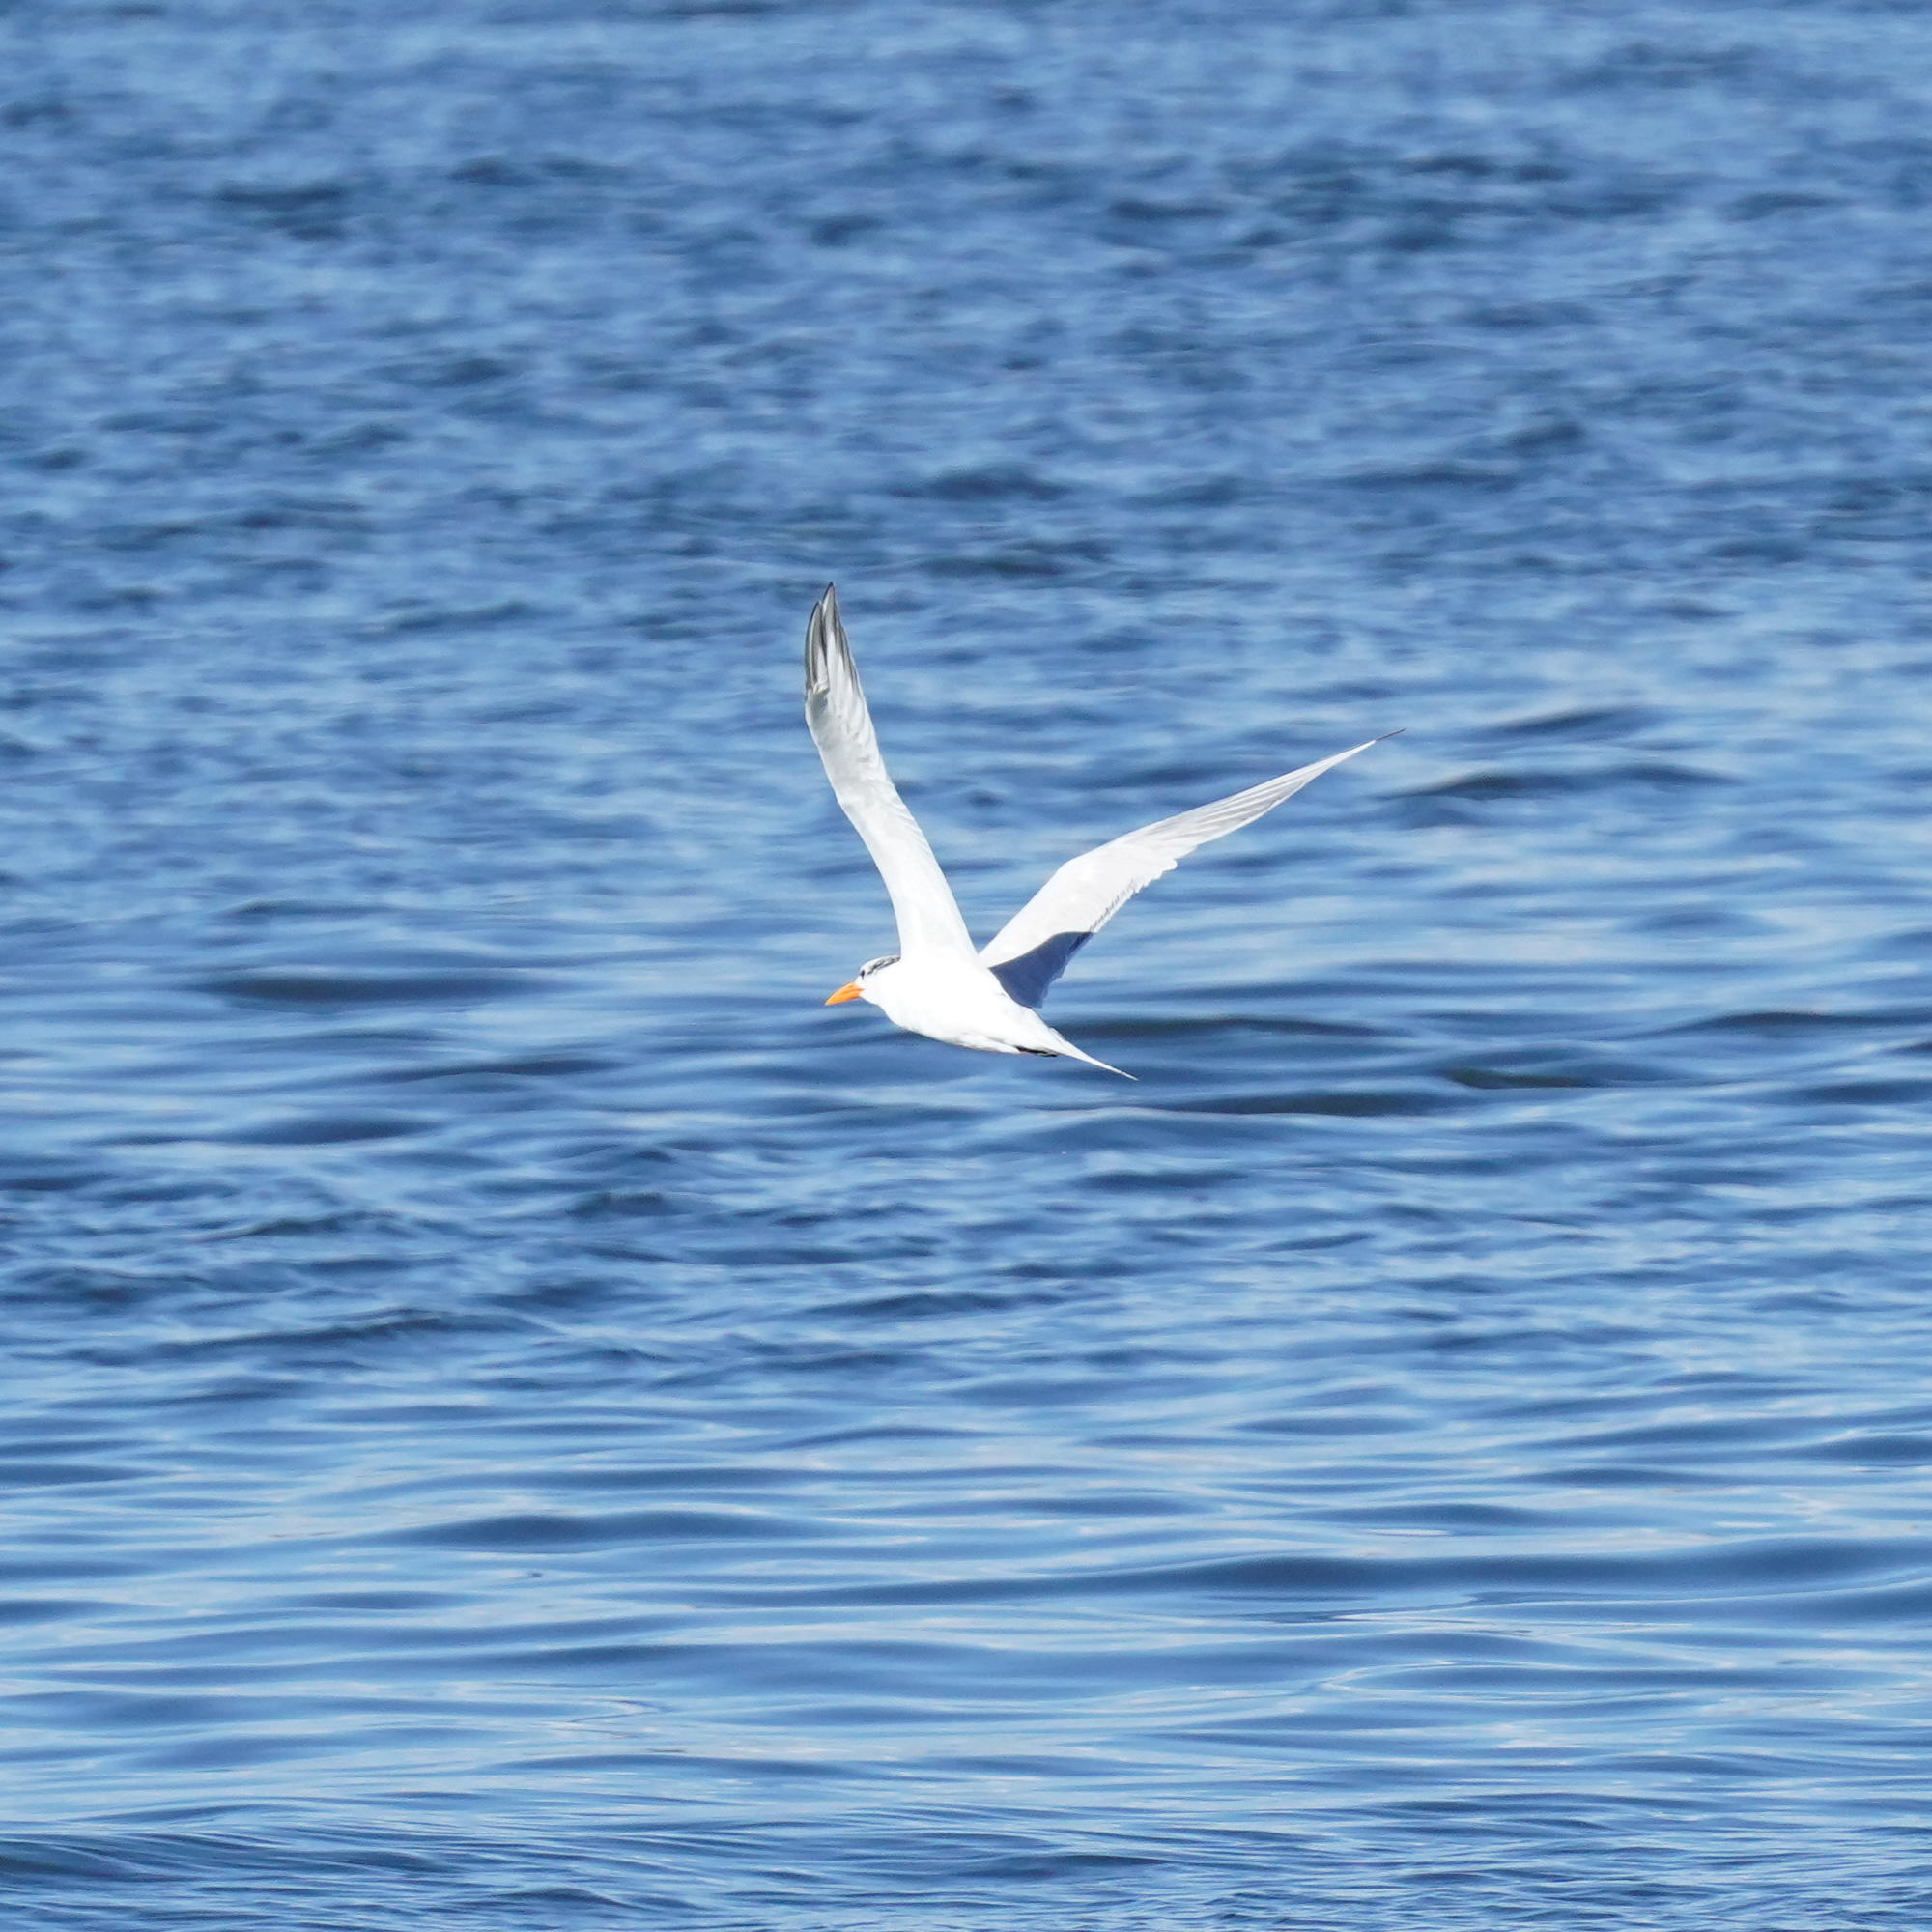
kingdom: Animalia
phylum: Chordata
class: Aves
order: Charadriiformes
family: Laridae
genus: Thalasseus
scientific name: Thalasseus maximus
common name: Royal tern
